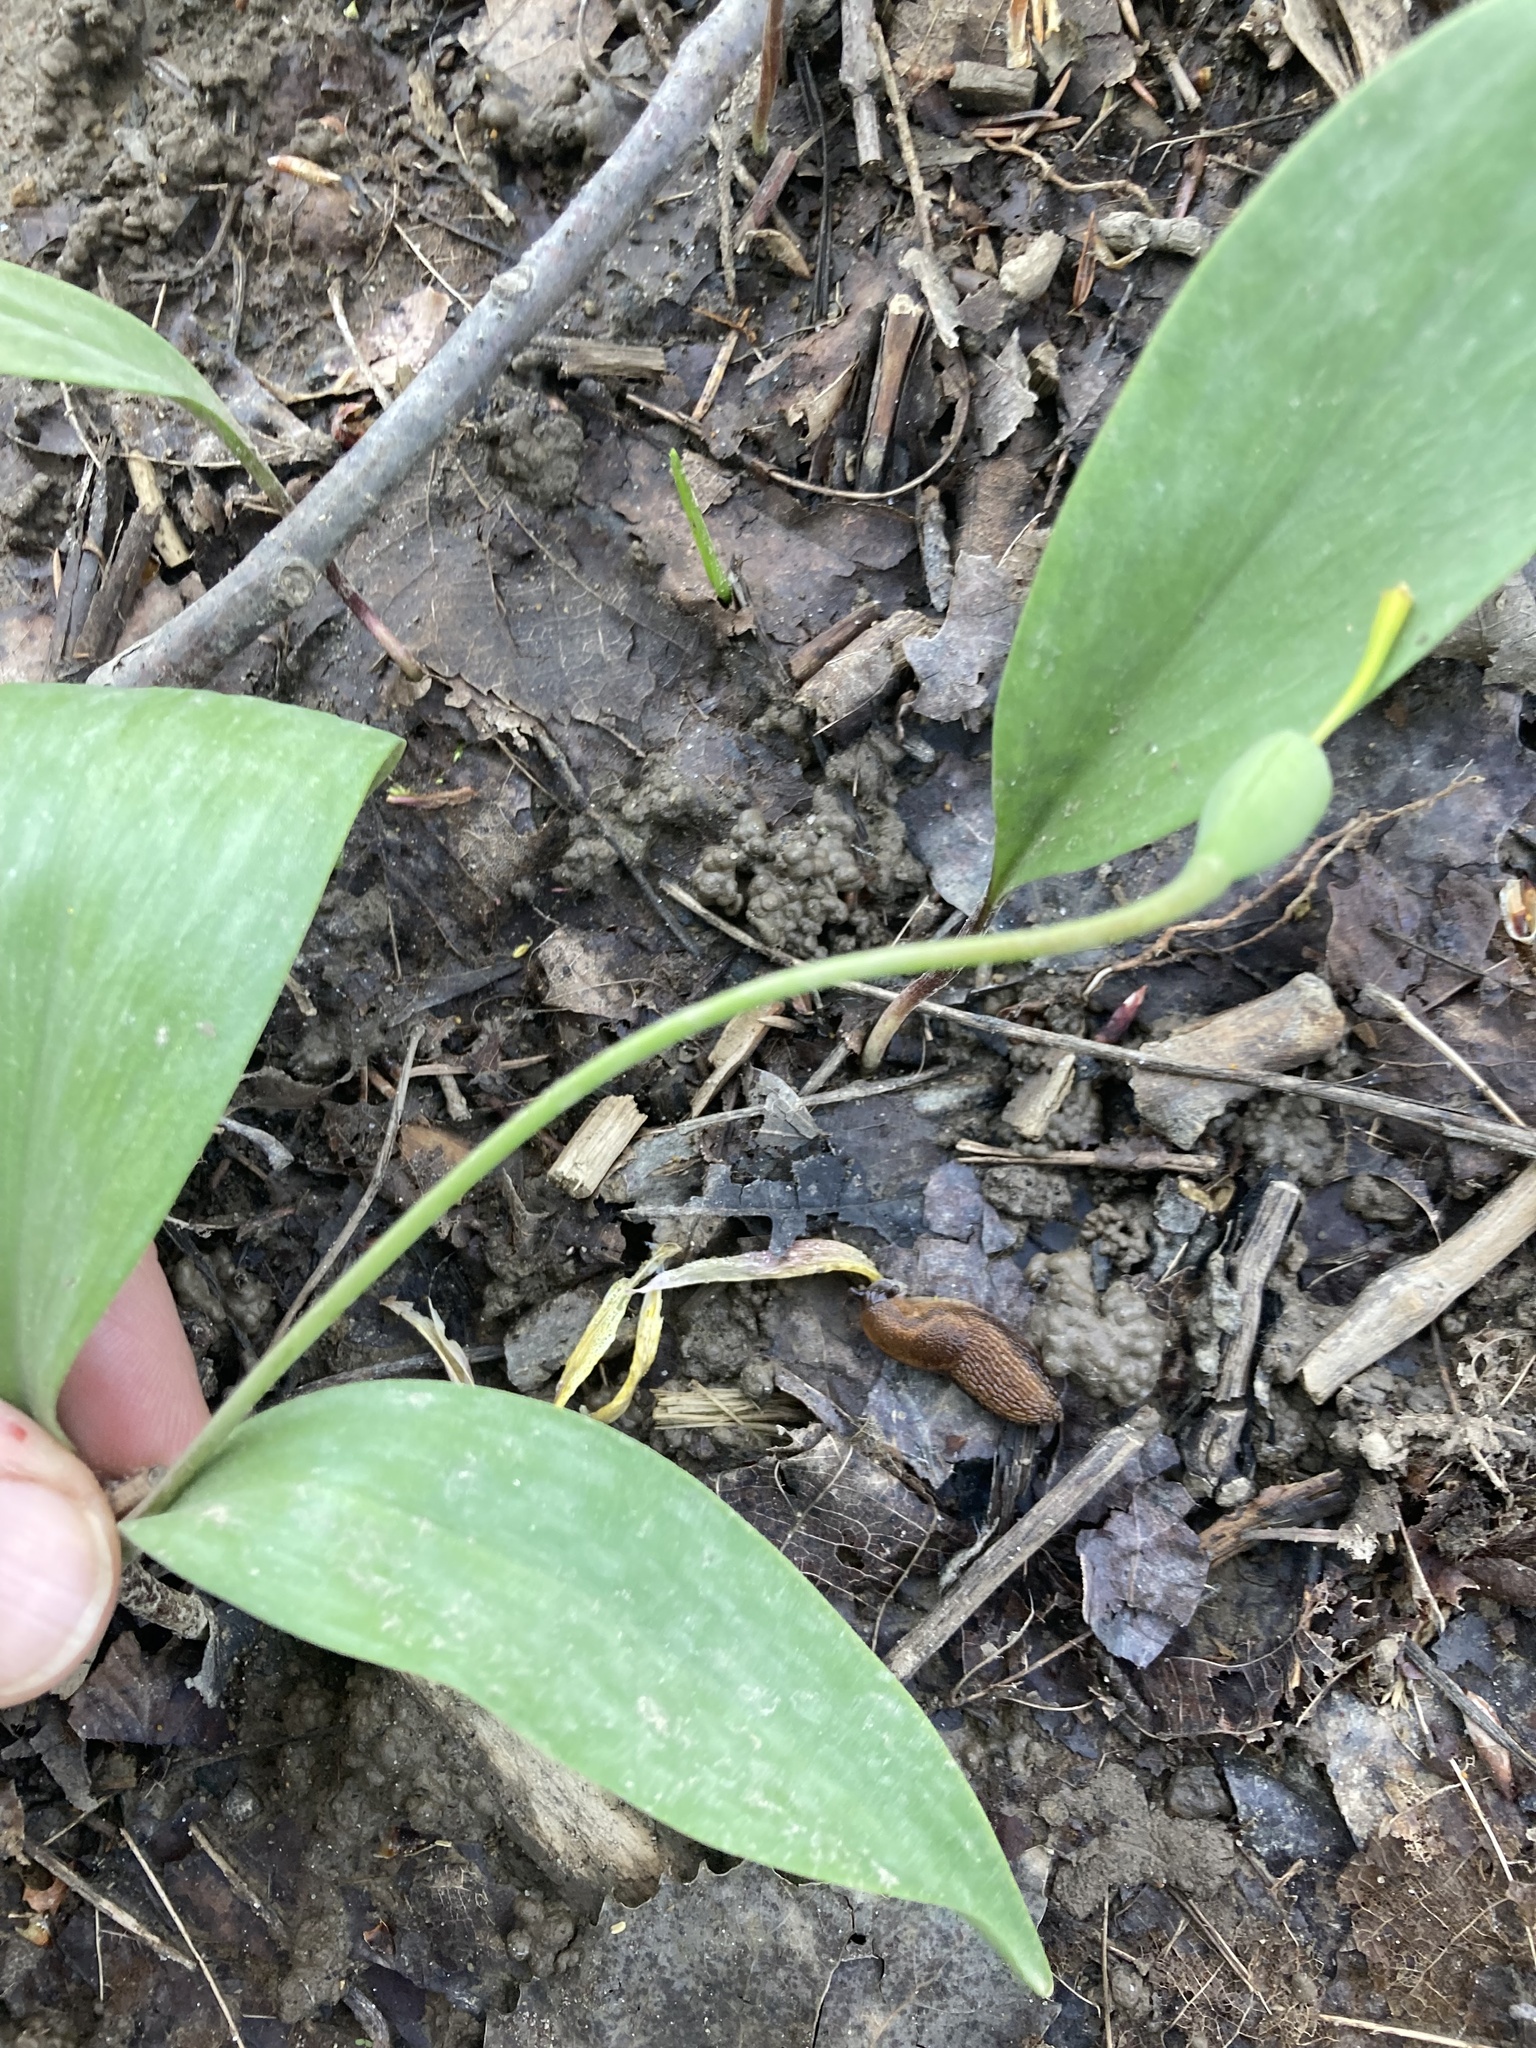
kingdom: Plantae
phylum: Tracheophyta
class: Liliopsida
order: Liliales
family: Liliaceae
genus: Erythronium
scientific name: Erythronium americanum
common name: Yellow adder's-tongue
